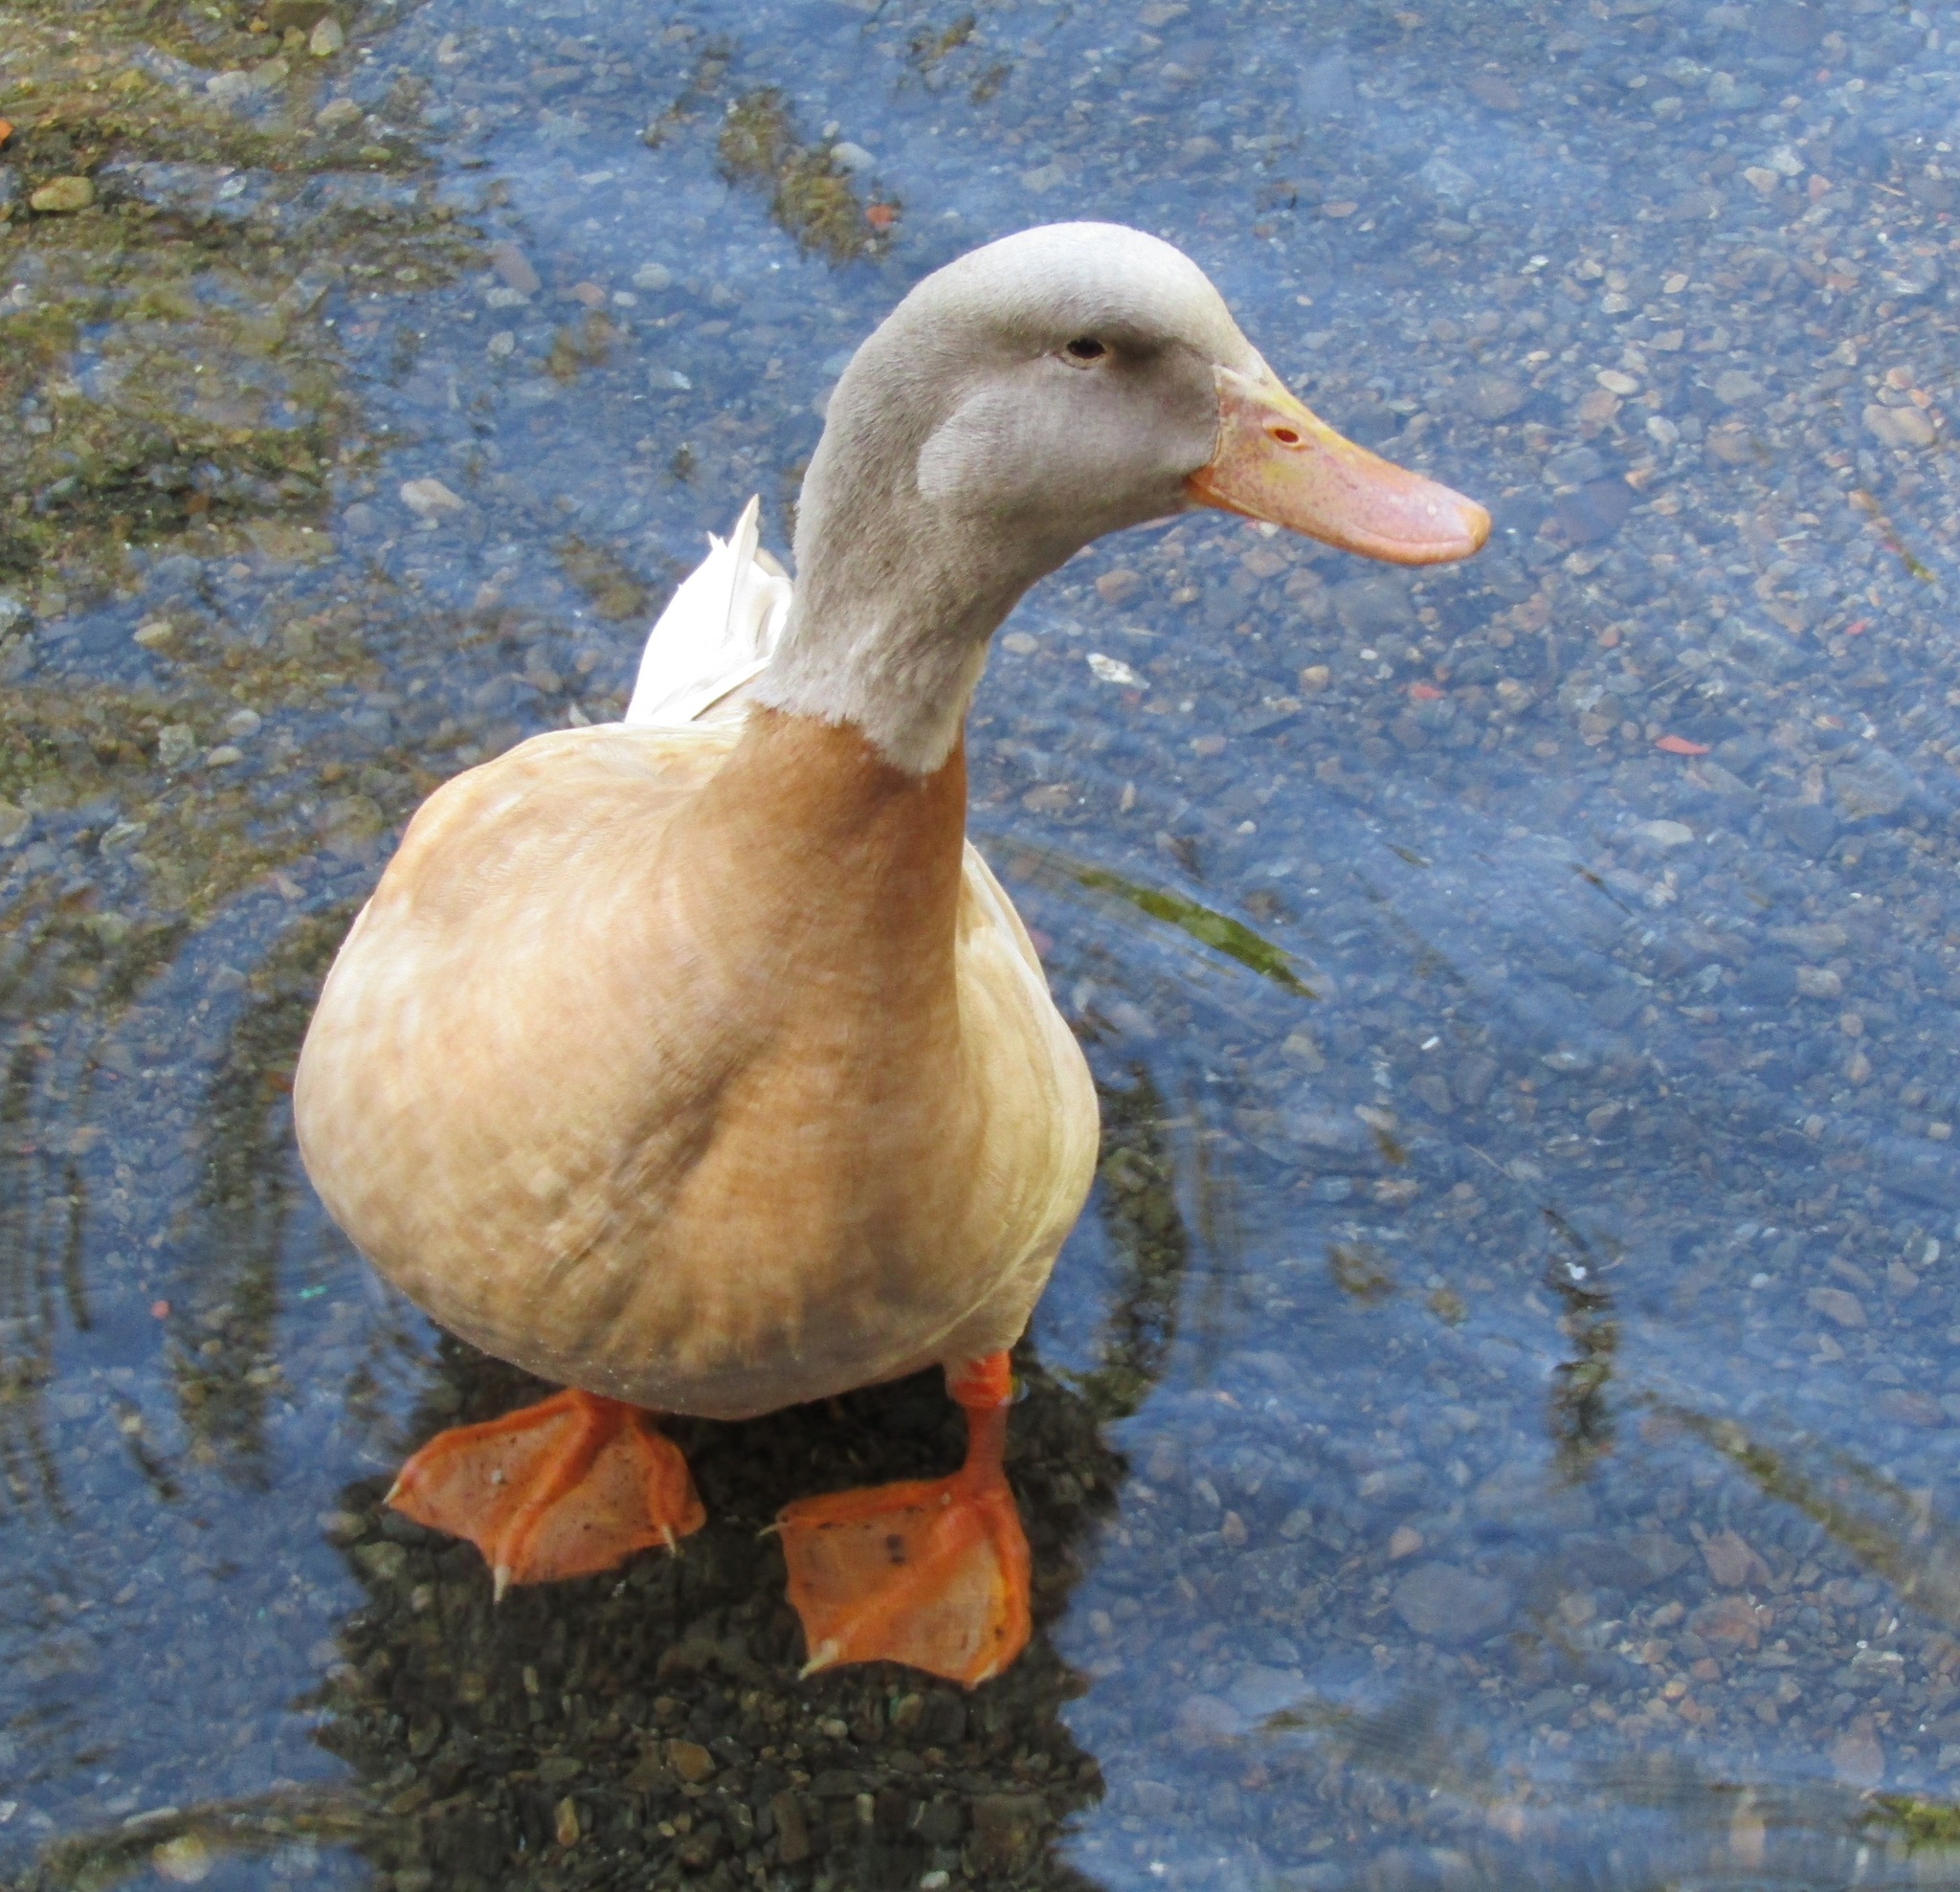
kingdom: Animalia
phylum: Chordata
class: Aves
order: Anseriformes
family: Anatidae
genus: Anas
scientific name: Anas platyrhynchos
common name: Mallard
